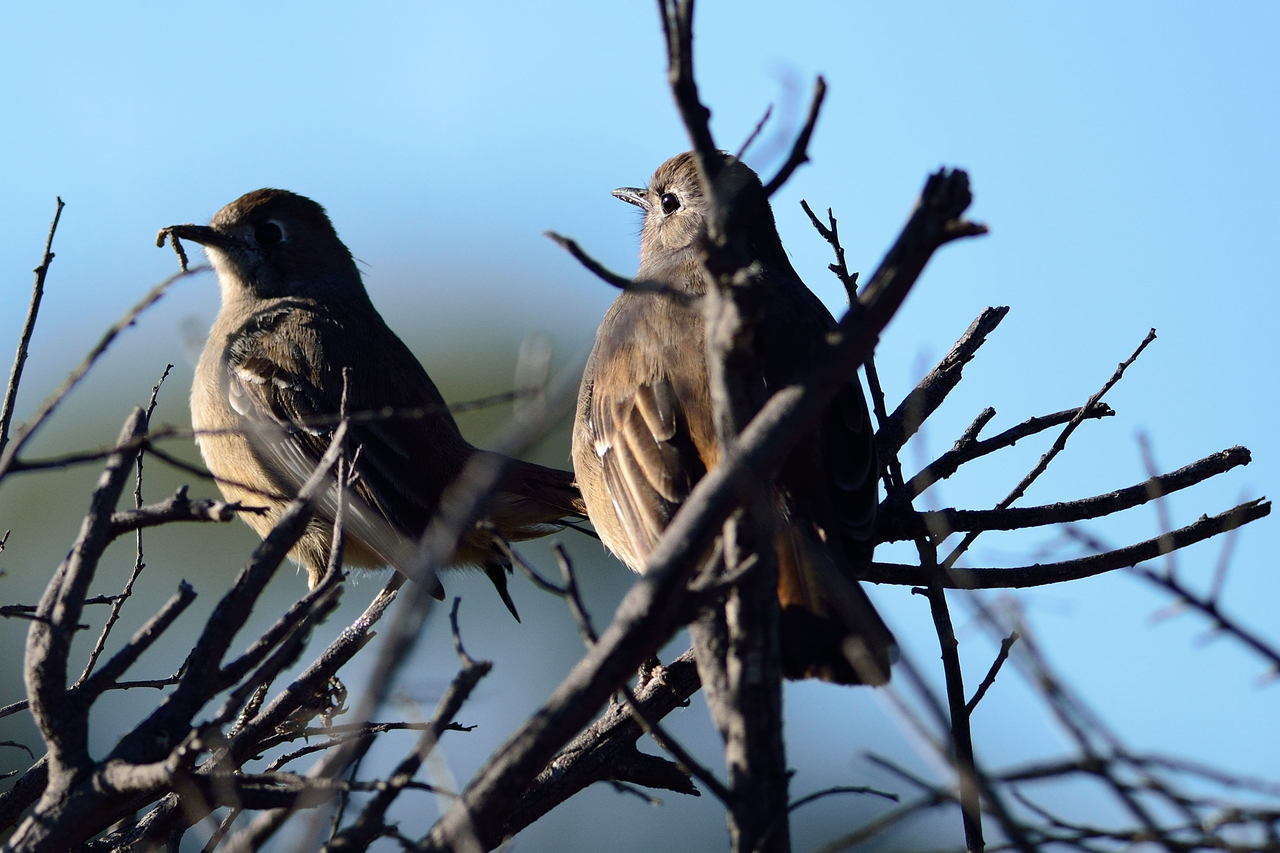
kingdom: Animalia
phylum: Chordata
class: Aves
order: Passeriformes
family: Petroicidae
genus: Drymodes
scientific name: Drymodes brunneopygia
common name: Southern scrub robin
